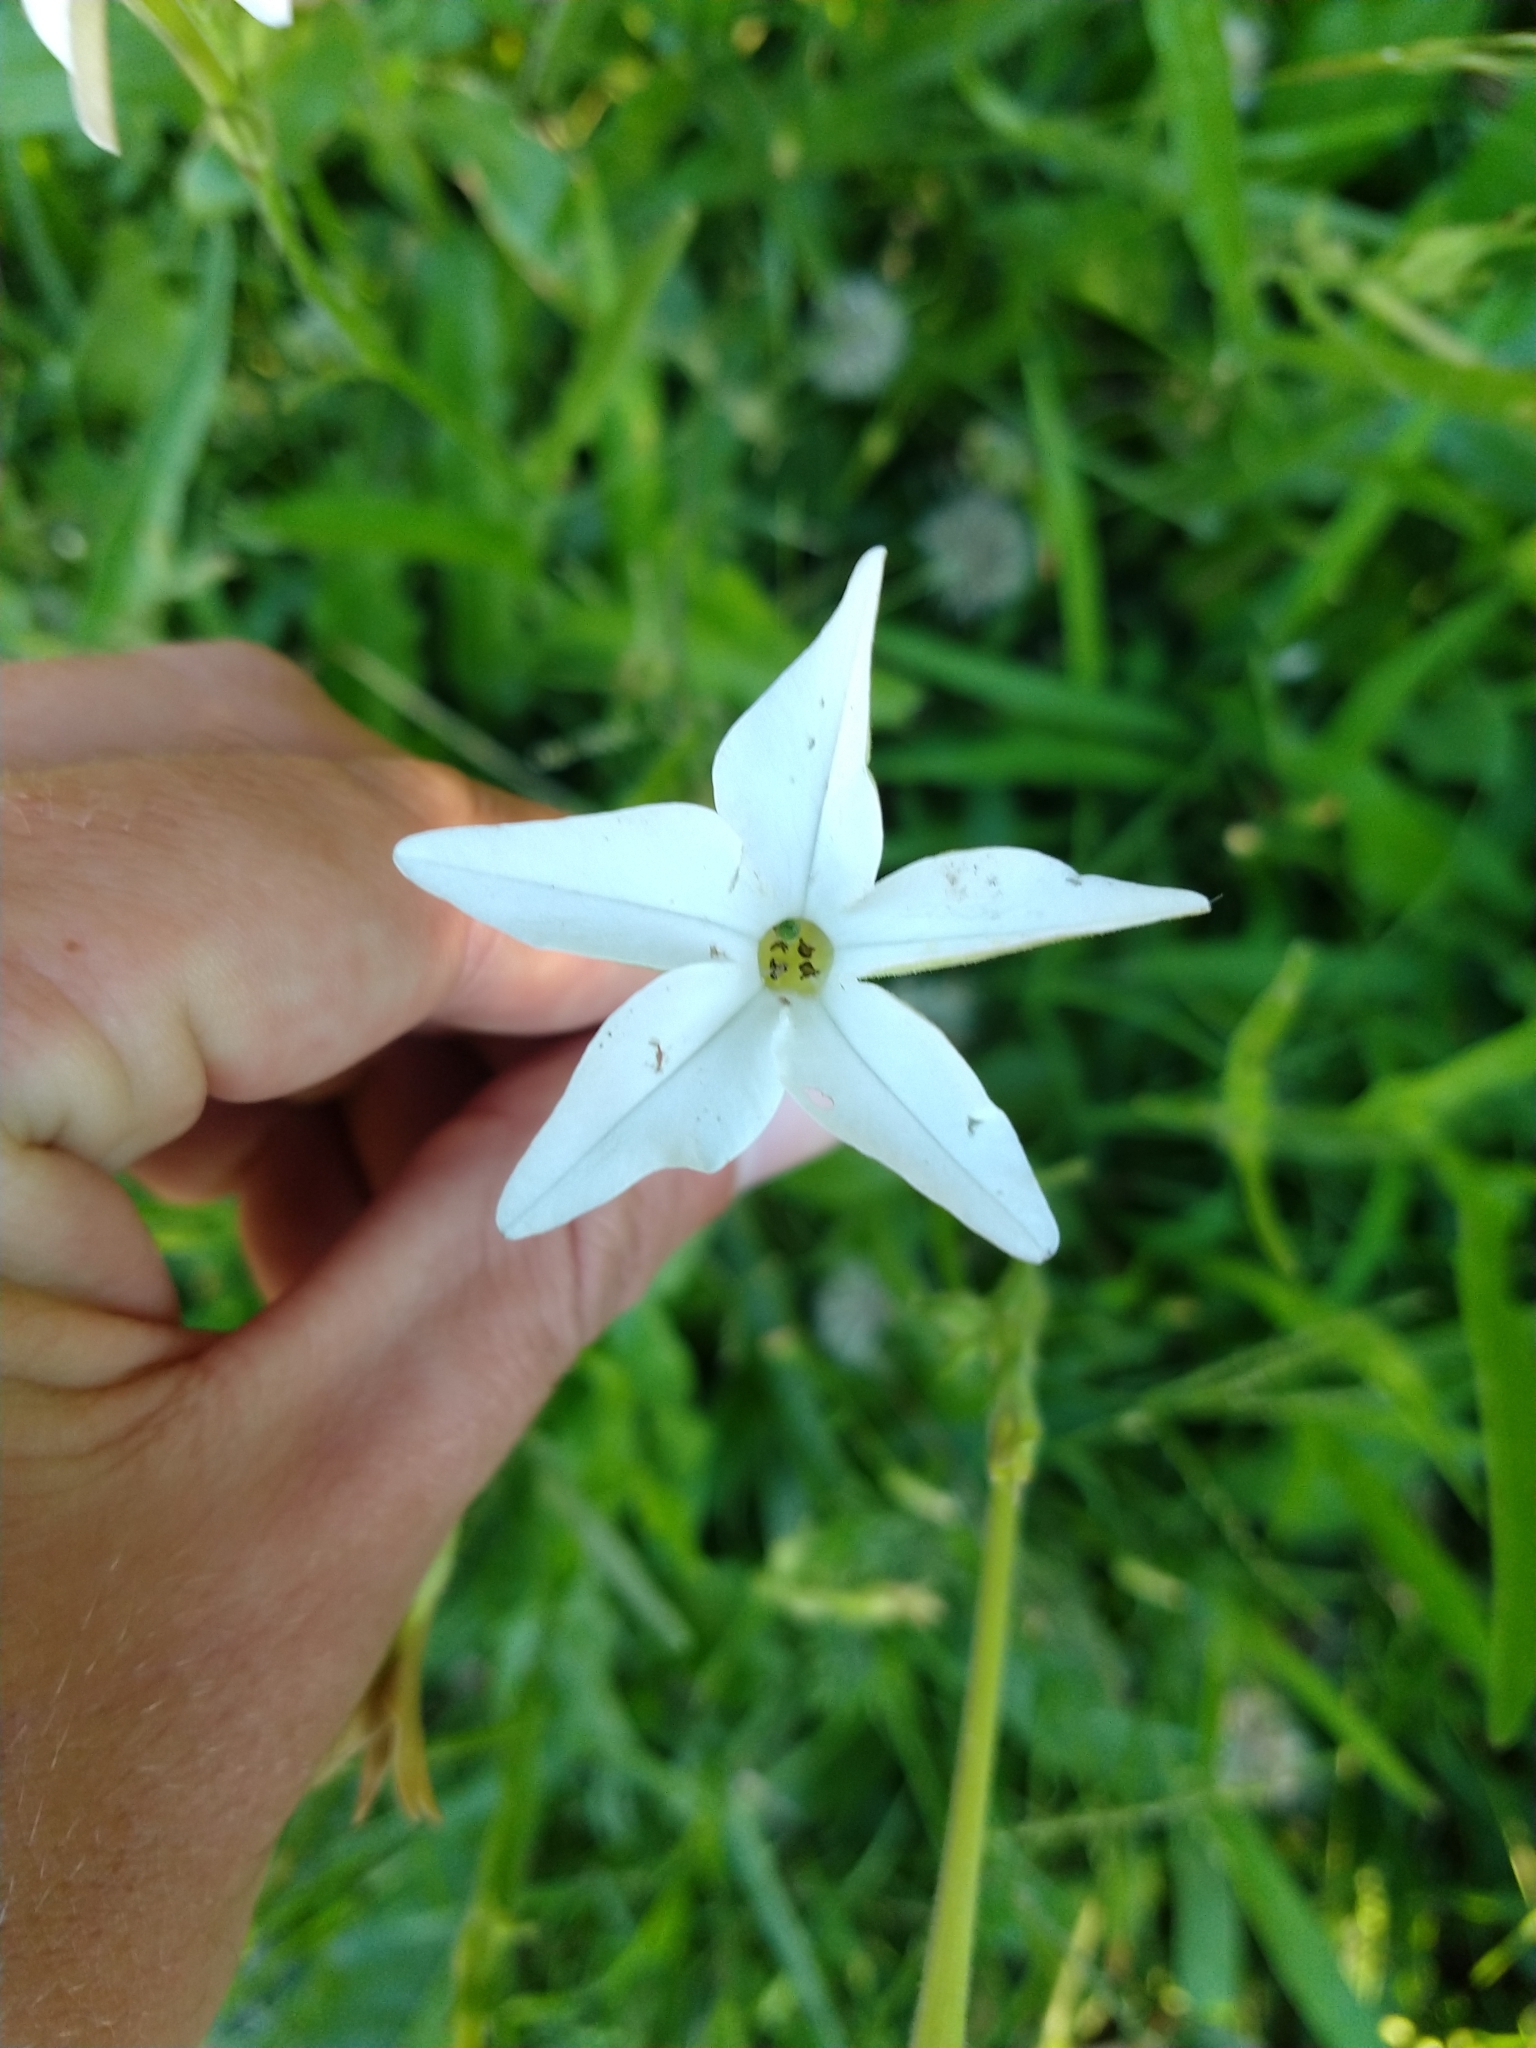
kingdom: Plantae
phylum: Tracheophyta
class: Magnoliopsida
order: Solanales
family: Solanaceae
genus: Nicotiana
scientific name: Nicotiana longiflora
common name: Long-flowered tobacco
